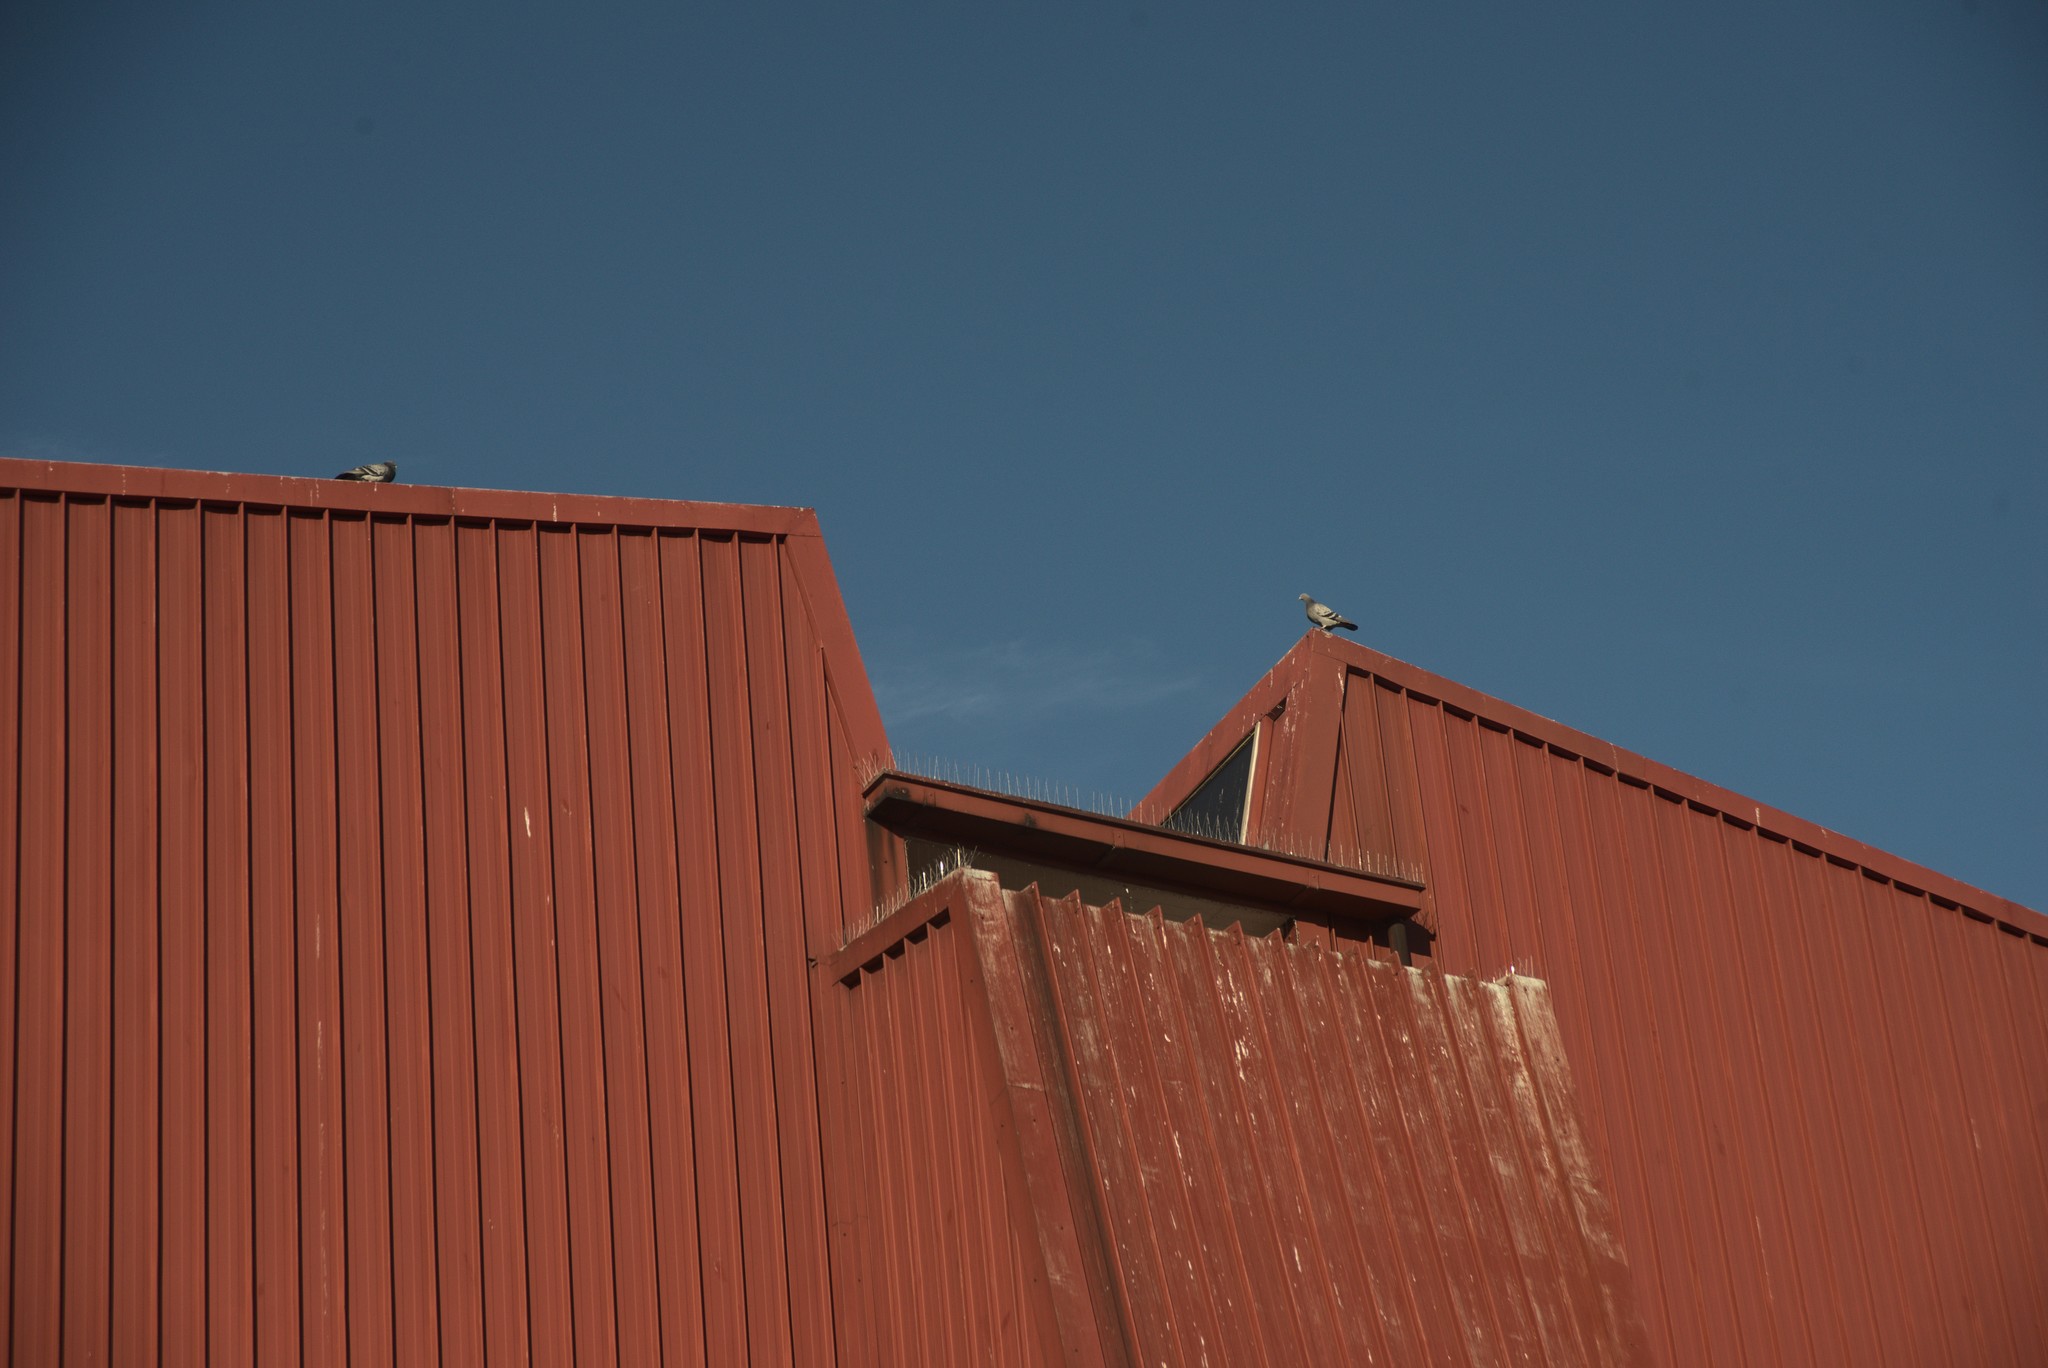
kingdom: Animalia
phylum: Chordata
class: Aves
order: Columbiformes
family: Columbidae
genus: Columba
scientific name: Columba livia
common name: Rock pigeon
